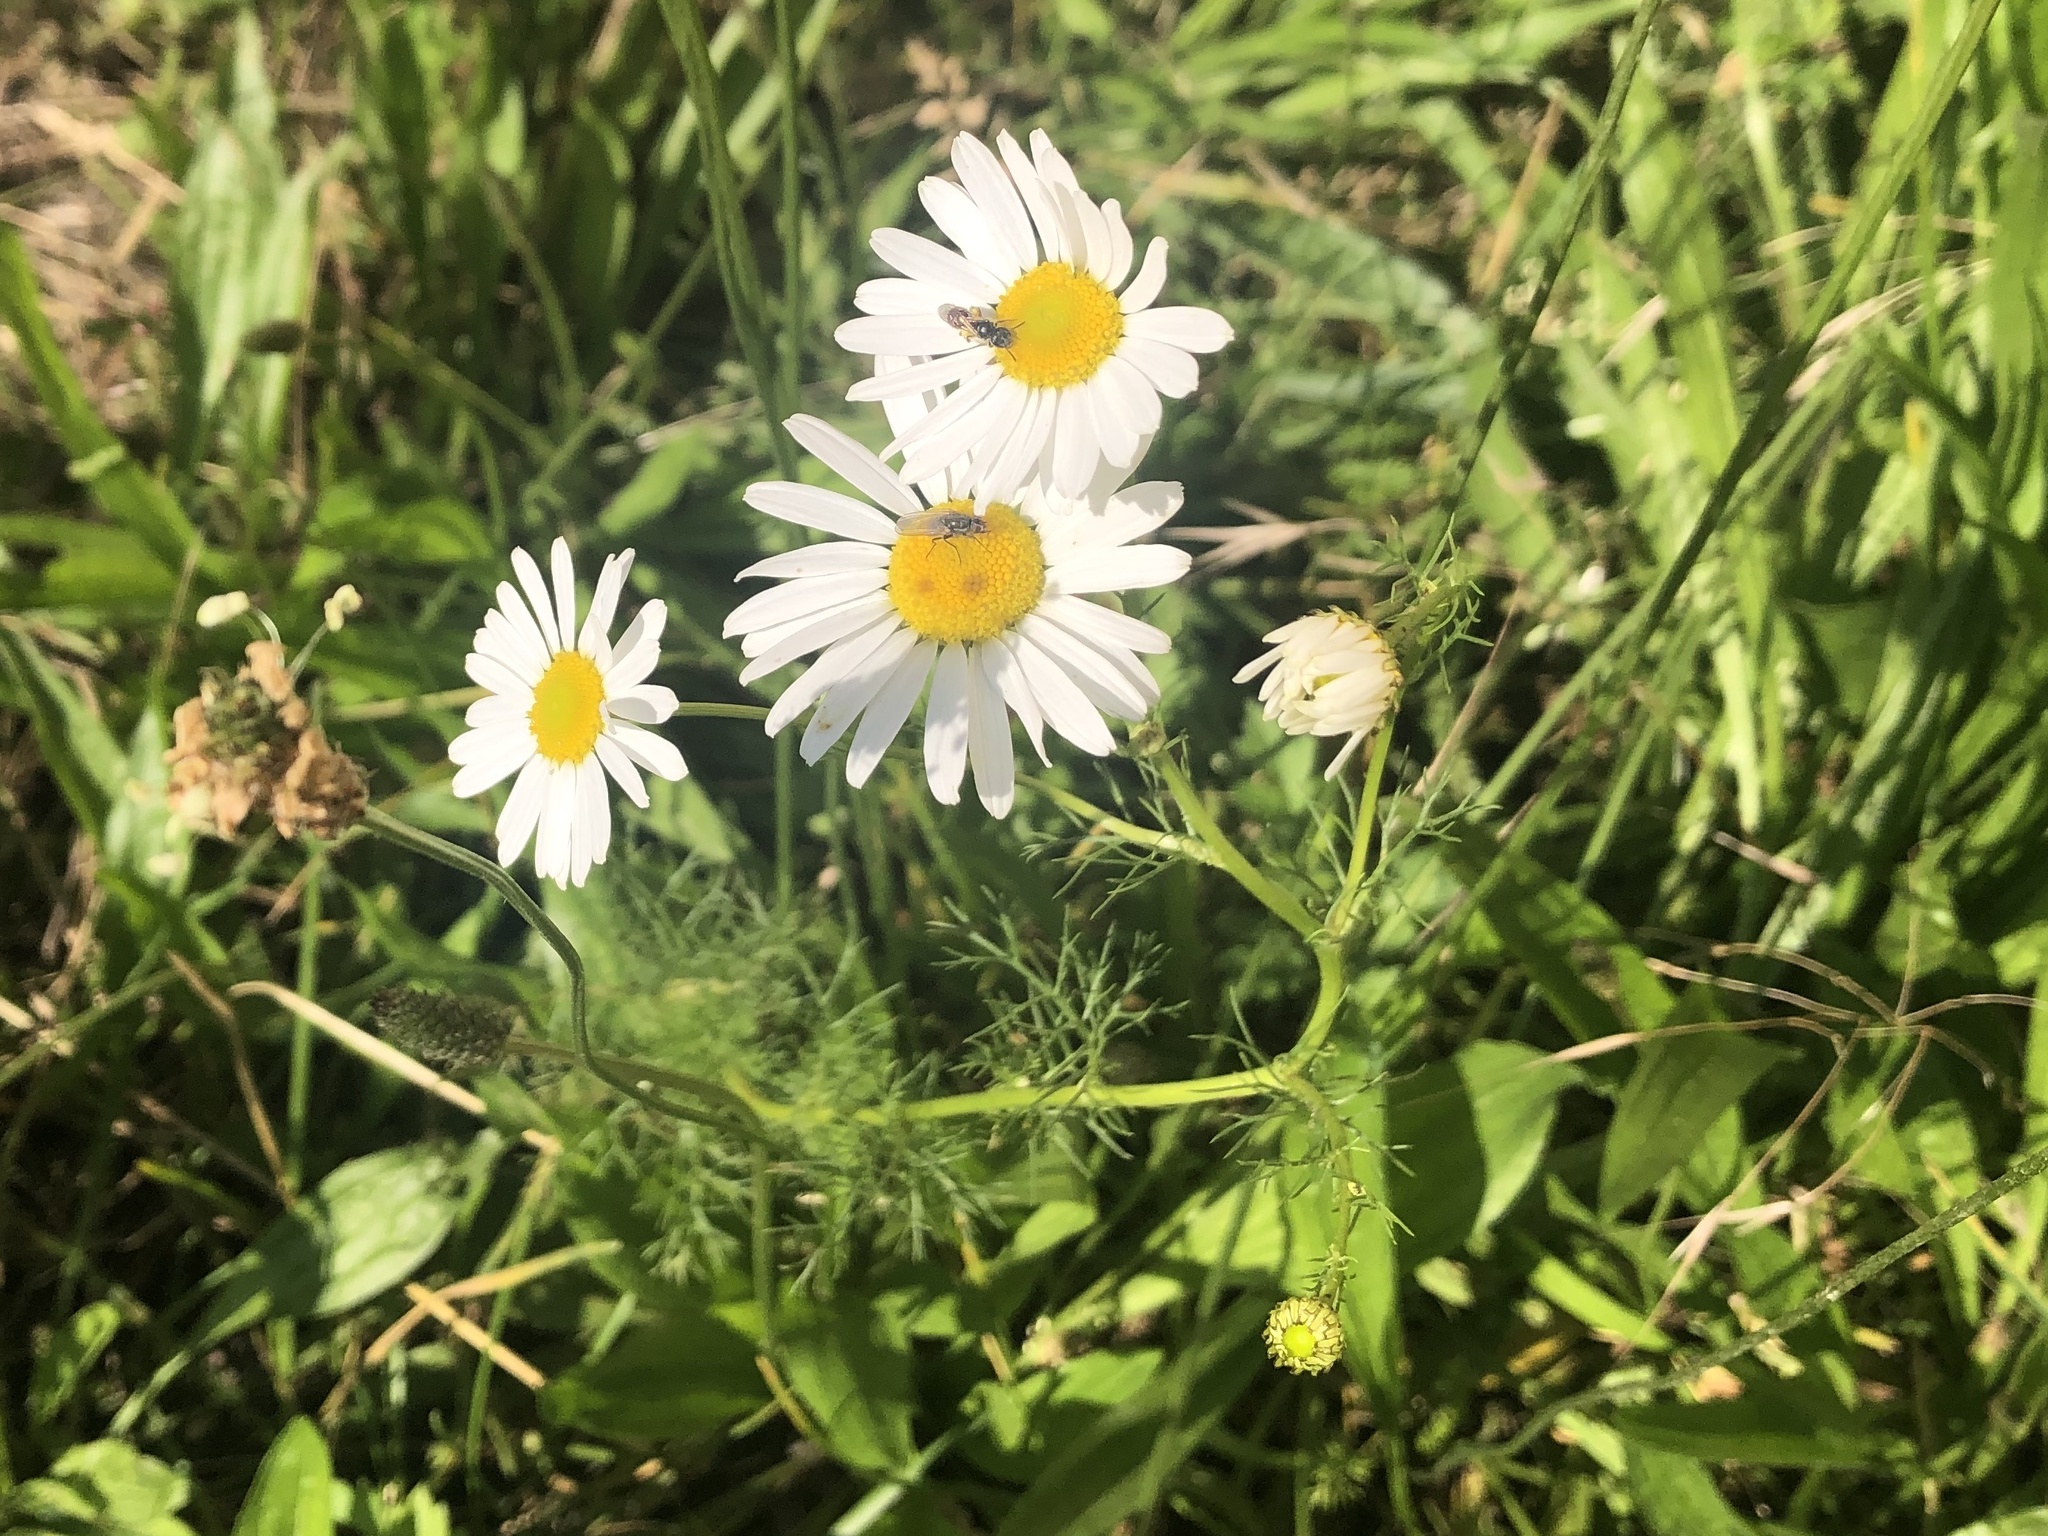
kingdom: Plantae
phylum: Tracheophyta
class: Magnoliopsida
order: Asterales
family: Asteraceae
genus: Tripleurospermum
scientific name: Tripleurospermum inodorum
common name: Scentless mayweed
